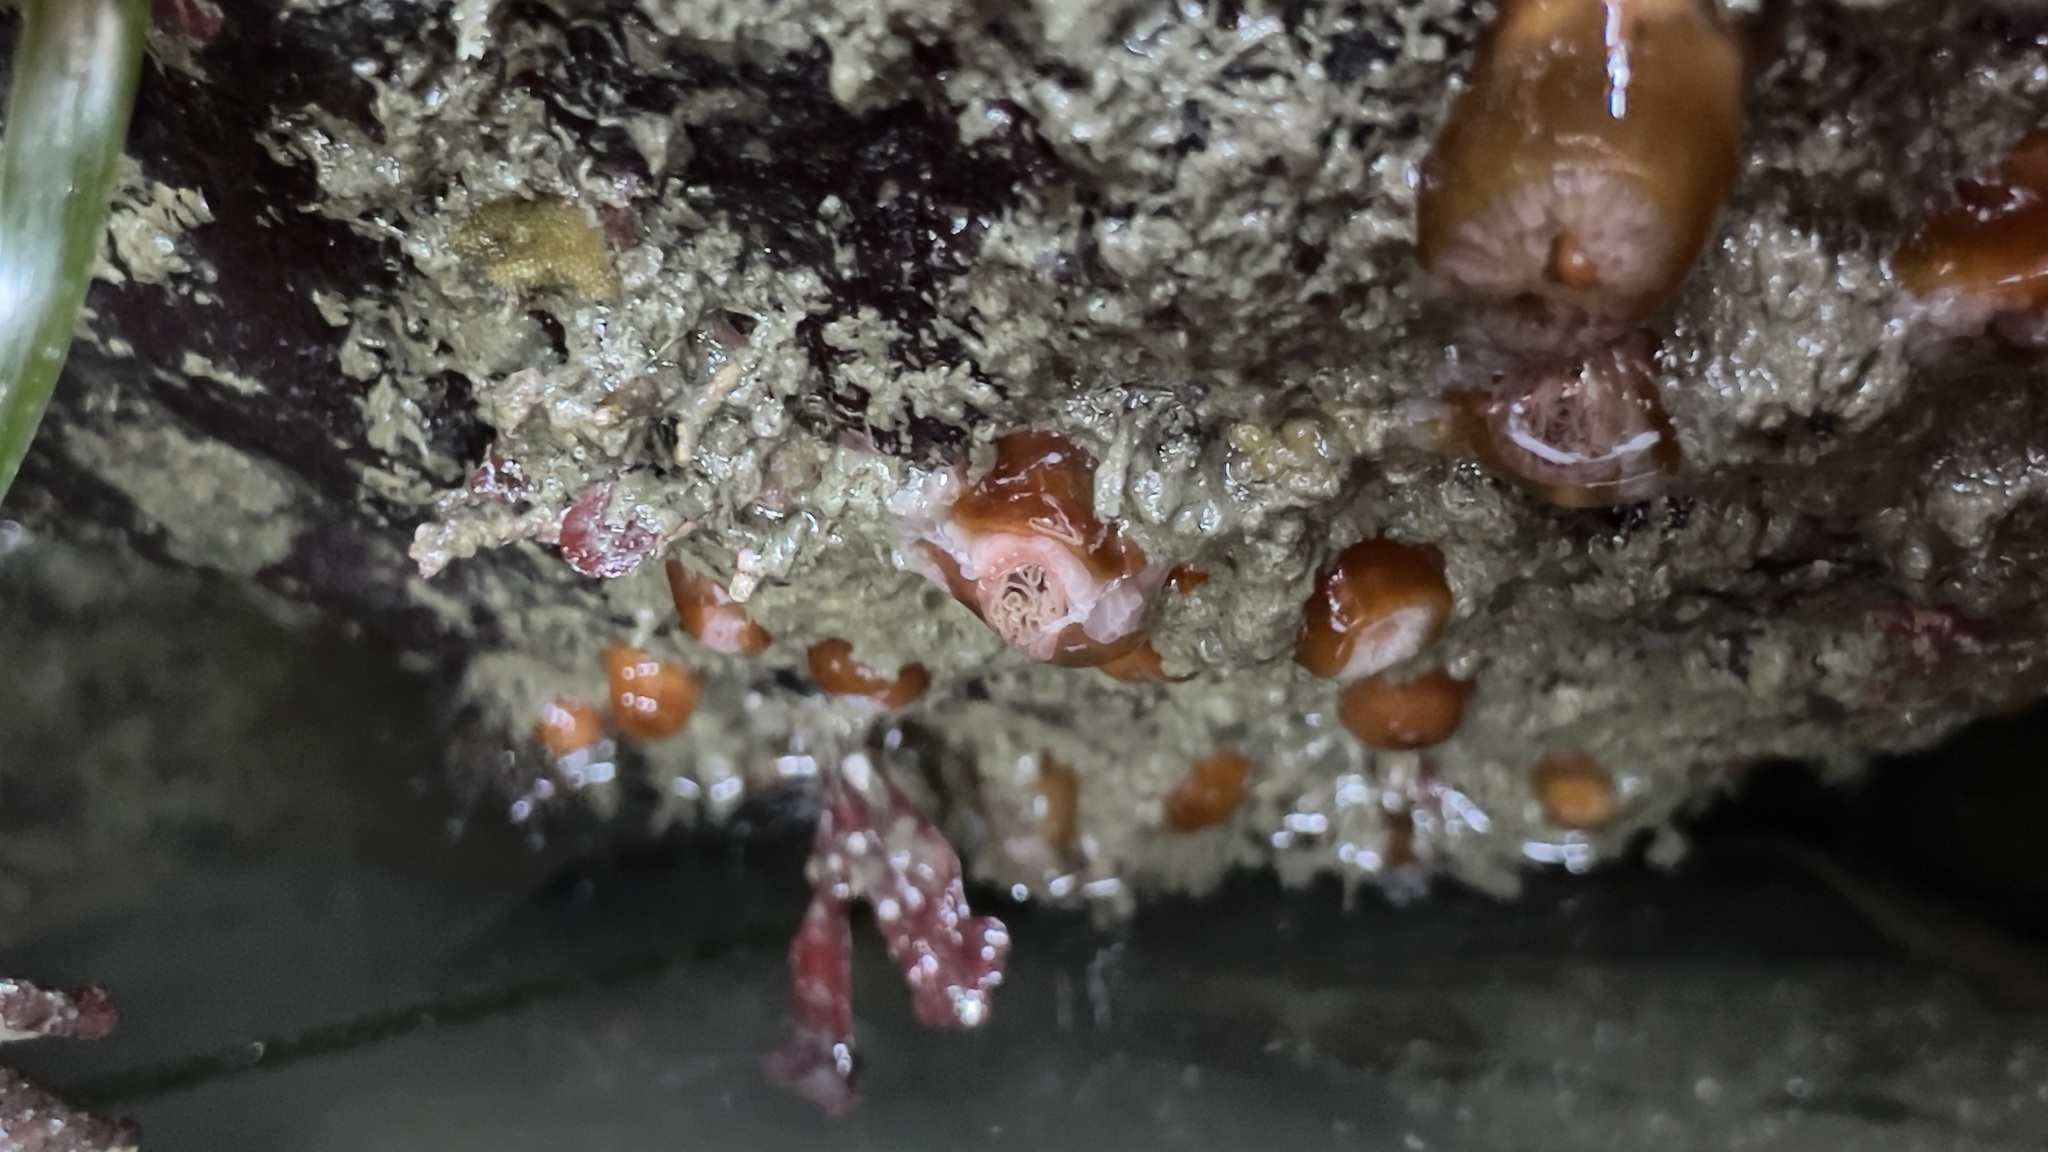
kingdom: Animalia
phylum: Cnidaria
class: Anthozoa
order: Corallimorpharia
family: Corallimorphidae
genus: Corynactis
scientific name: Corynactis californica
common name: Strawberry corallimorpharian
